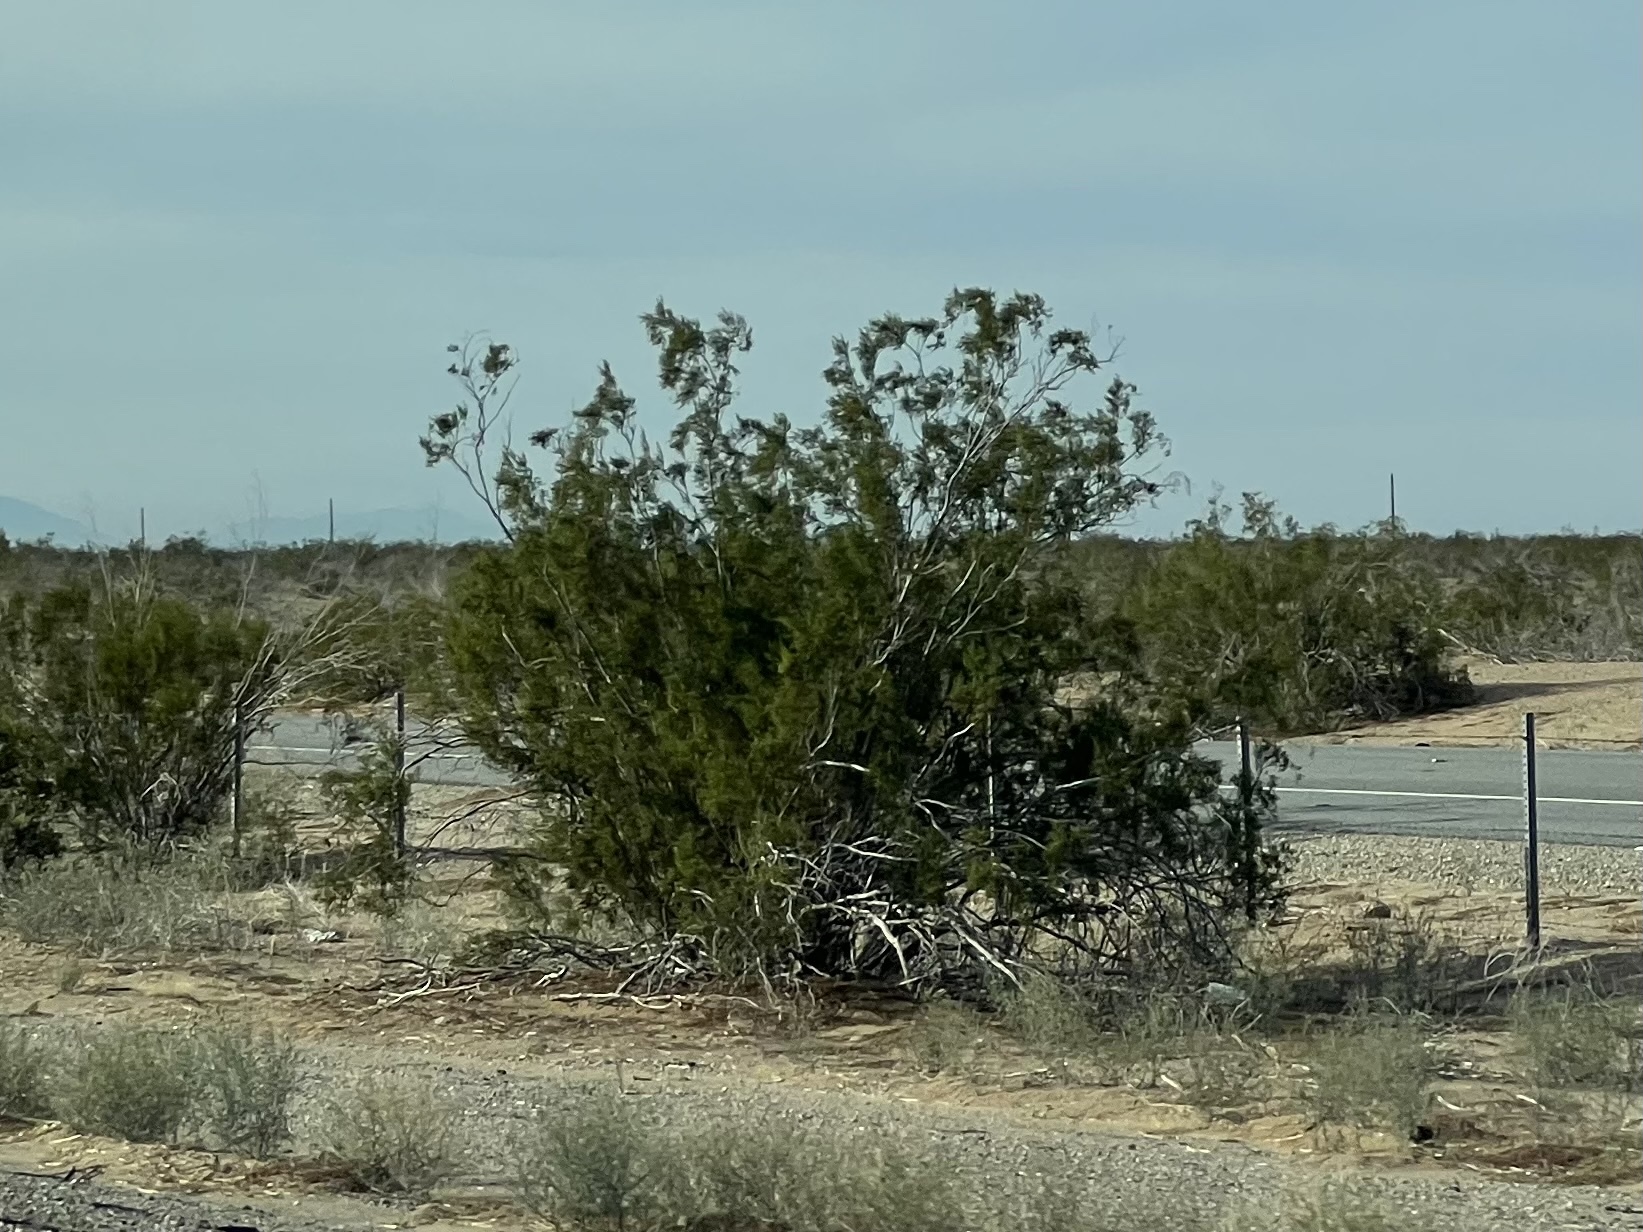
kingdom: Plantae
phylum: Tracheophyta
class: Magnoliopsida
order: Zygophyllales
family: Zygophyllaceae
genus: Larrea
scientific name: Larrea tridentata
